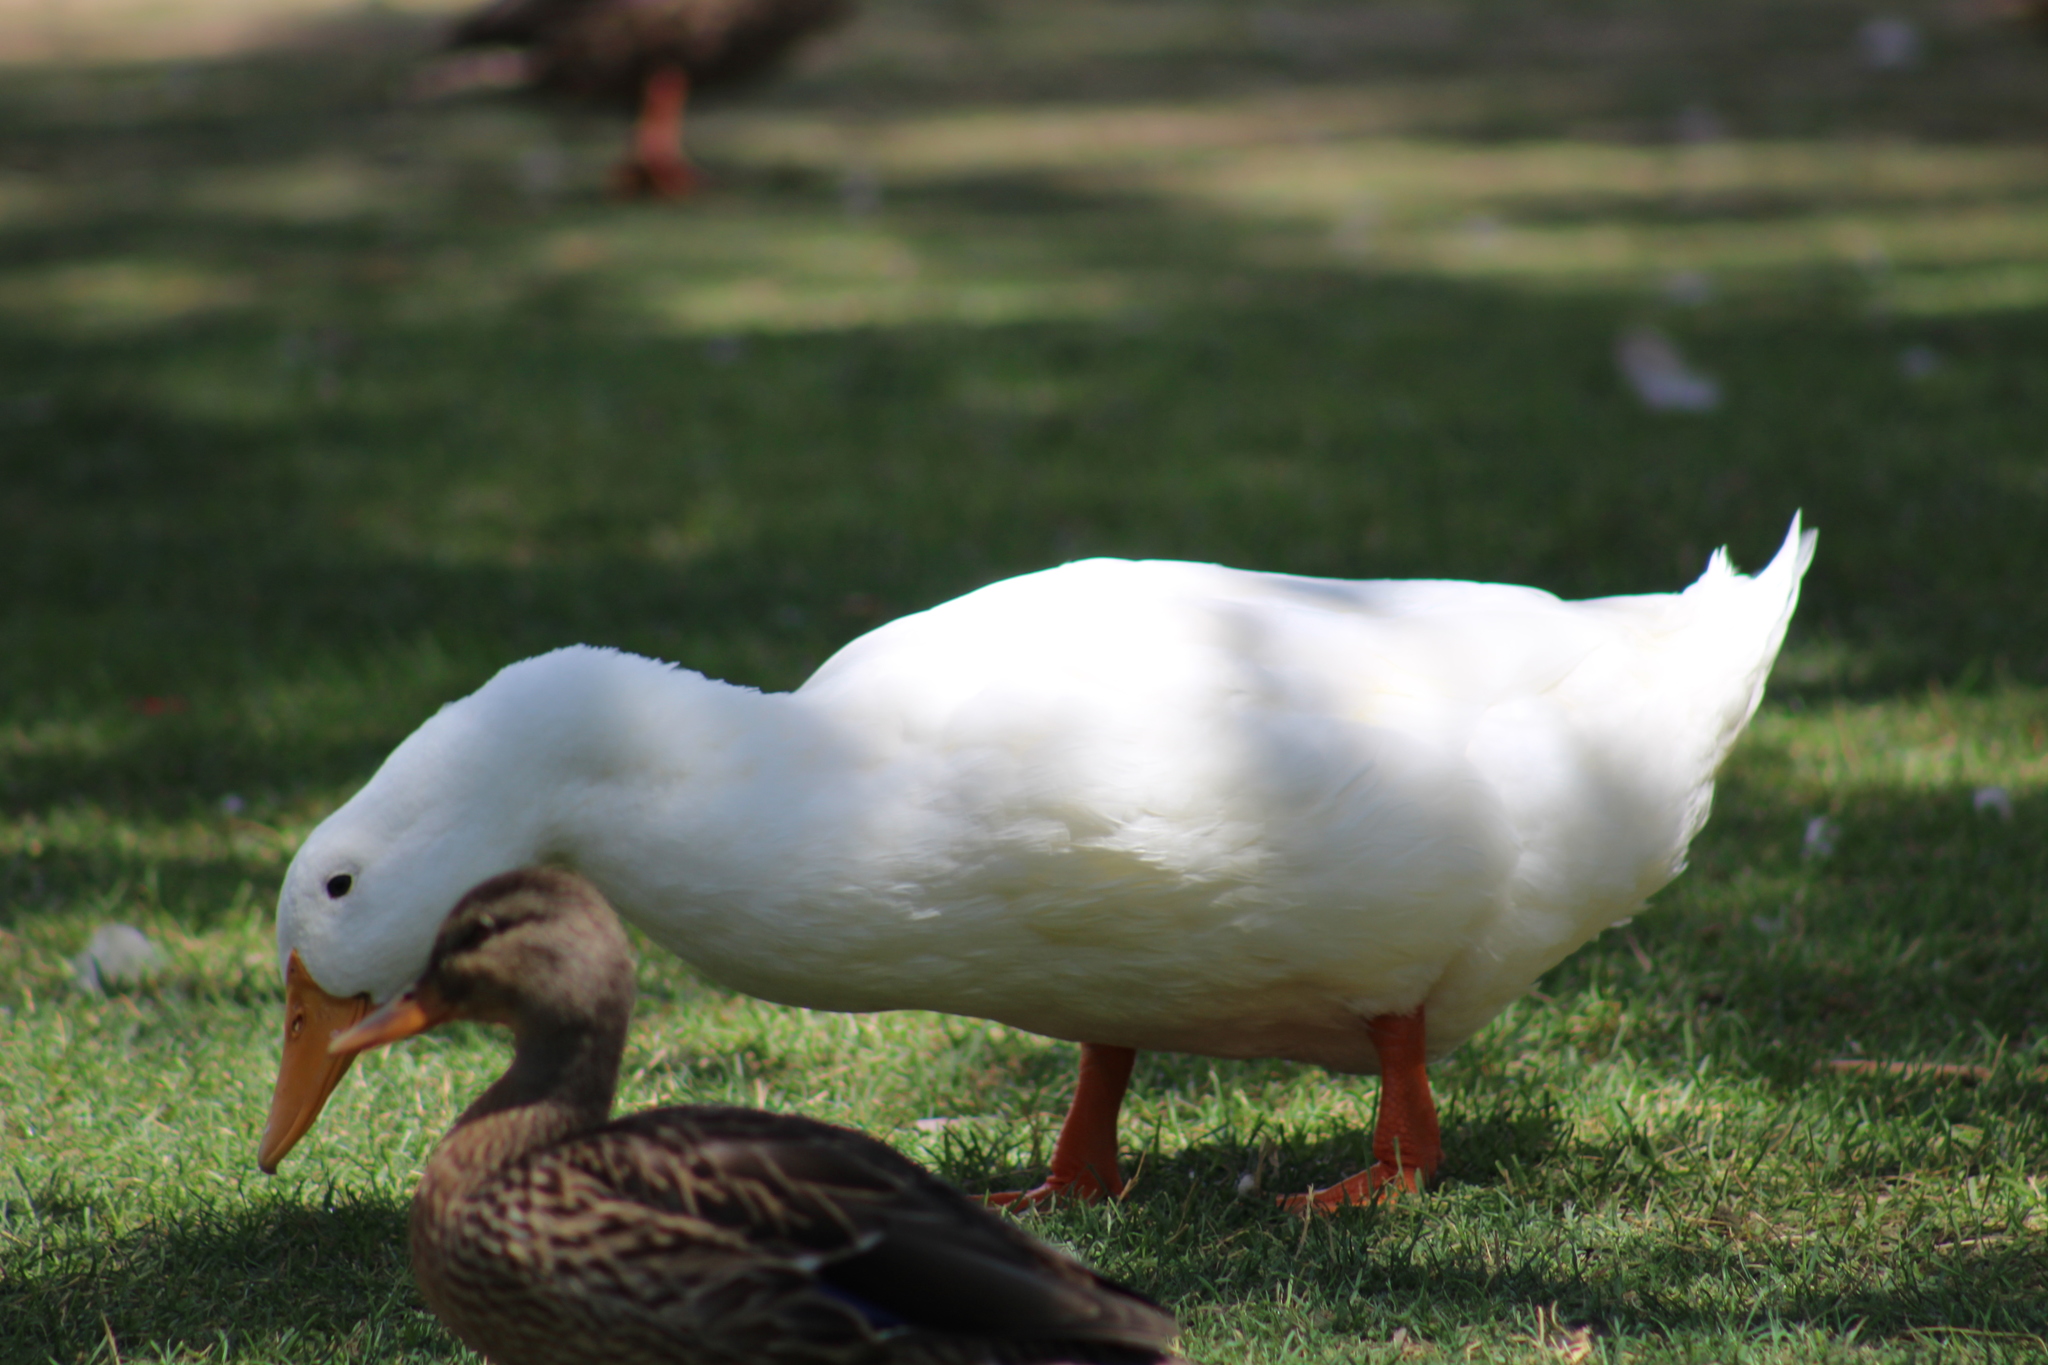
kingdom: Animalia
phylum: Chordata
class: Aves
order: Anseriformes
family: Anatidae
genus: Anas
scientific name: Anas platyrhynchos
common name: Mallard
